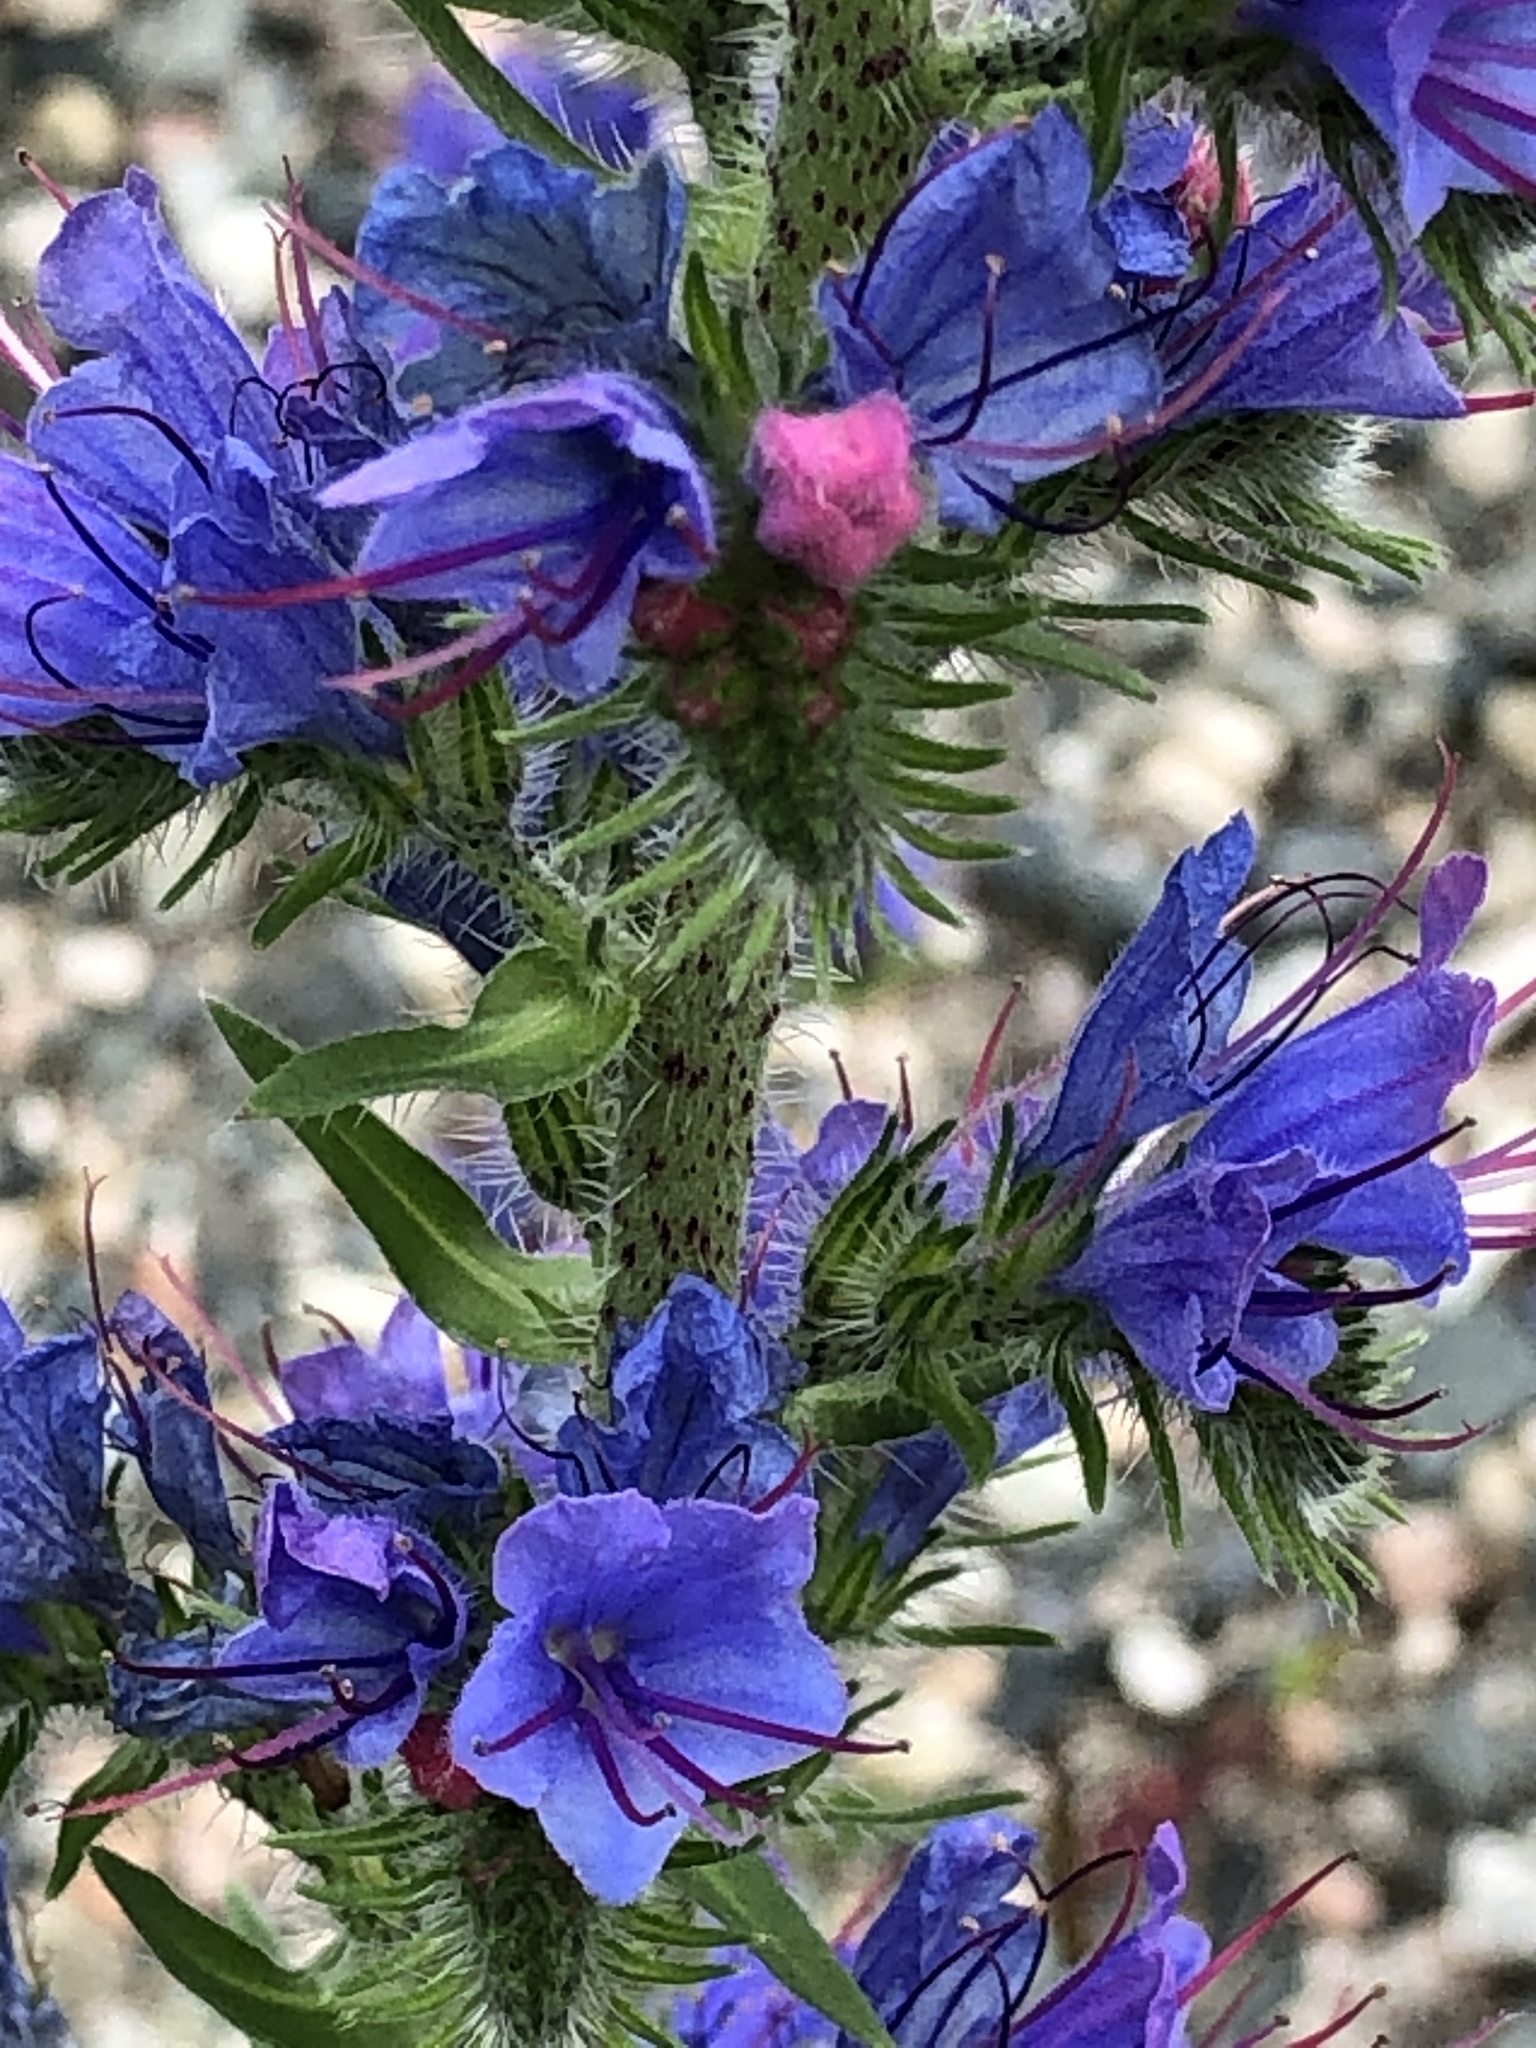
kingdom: Plantae
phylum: Tracheophyta
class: Magnoliopsida
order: Boraginales
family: Boraginaceae
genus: Echium
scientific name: Echium vulgare
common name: Common viper's bugloss
